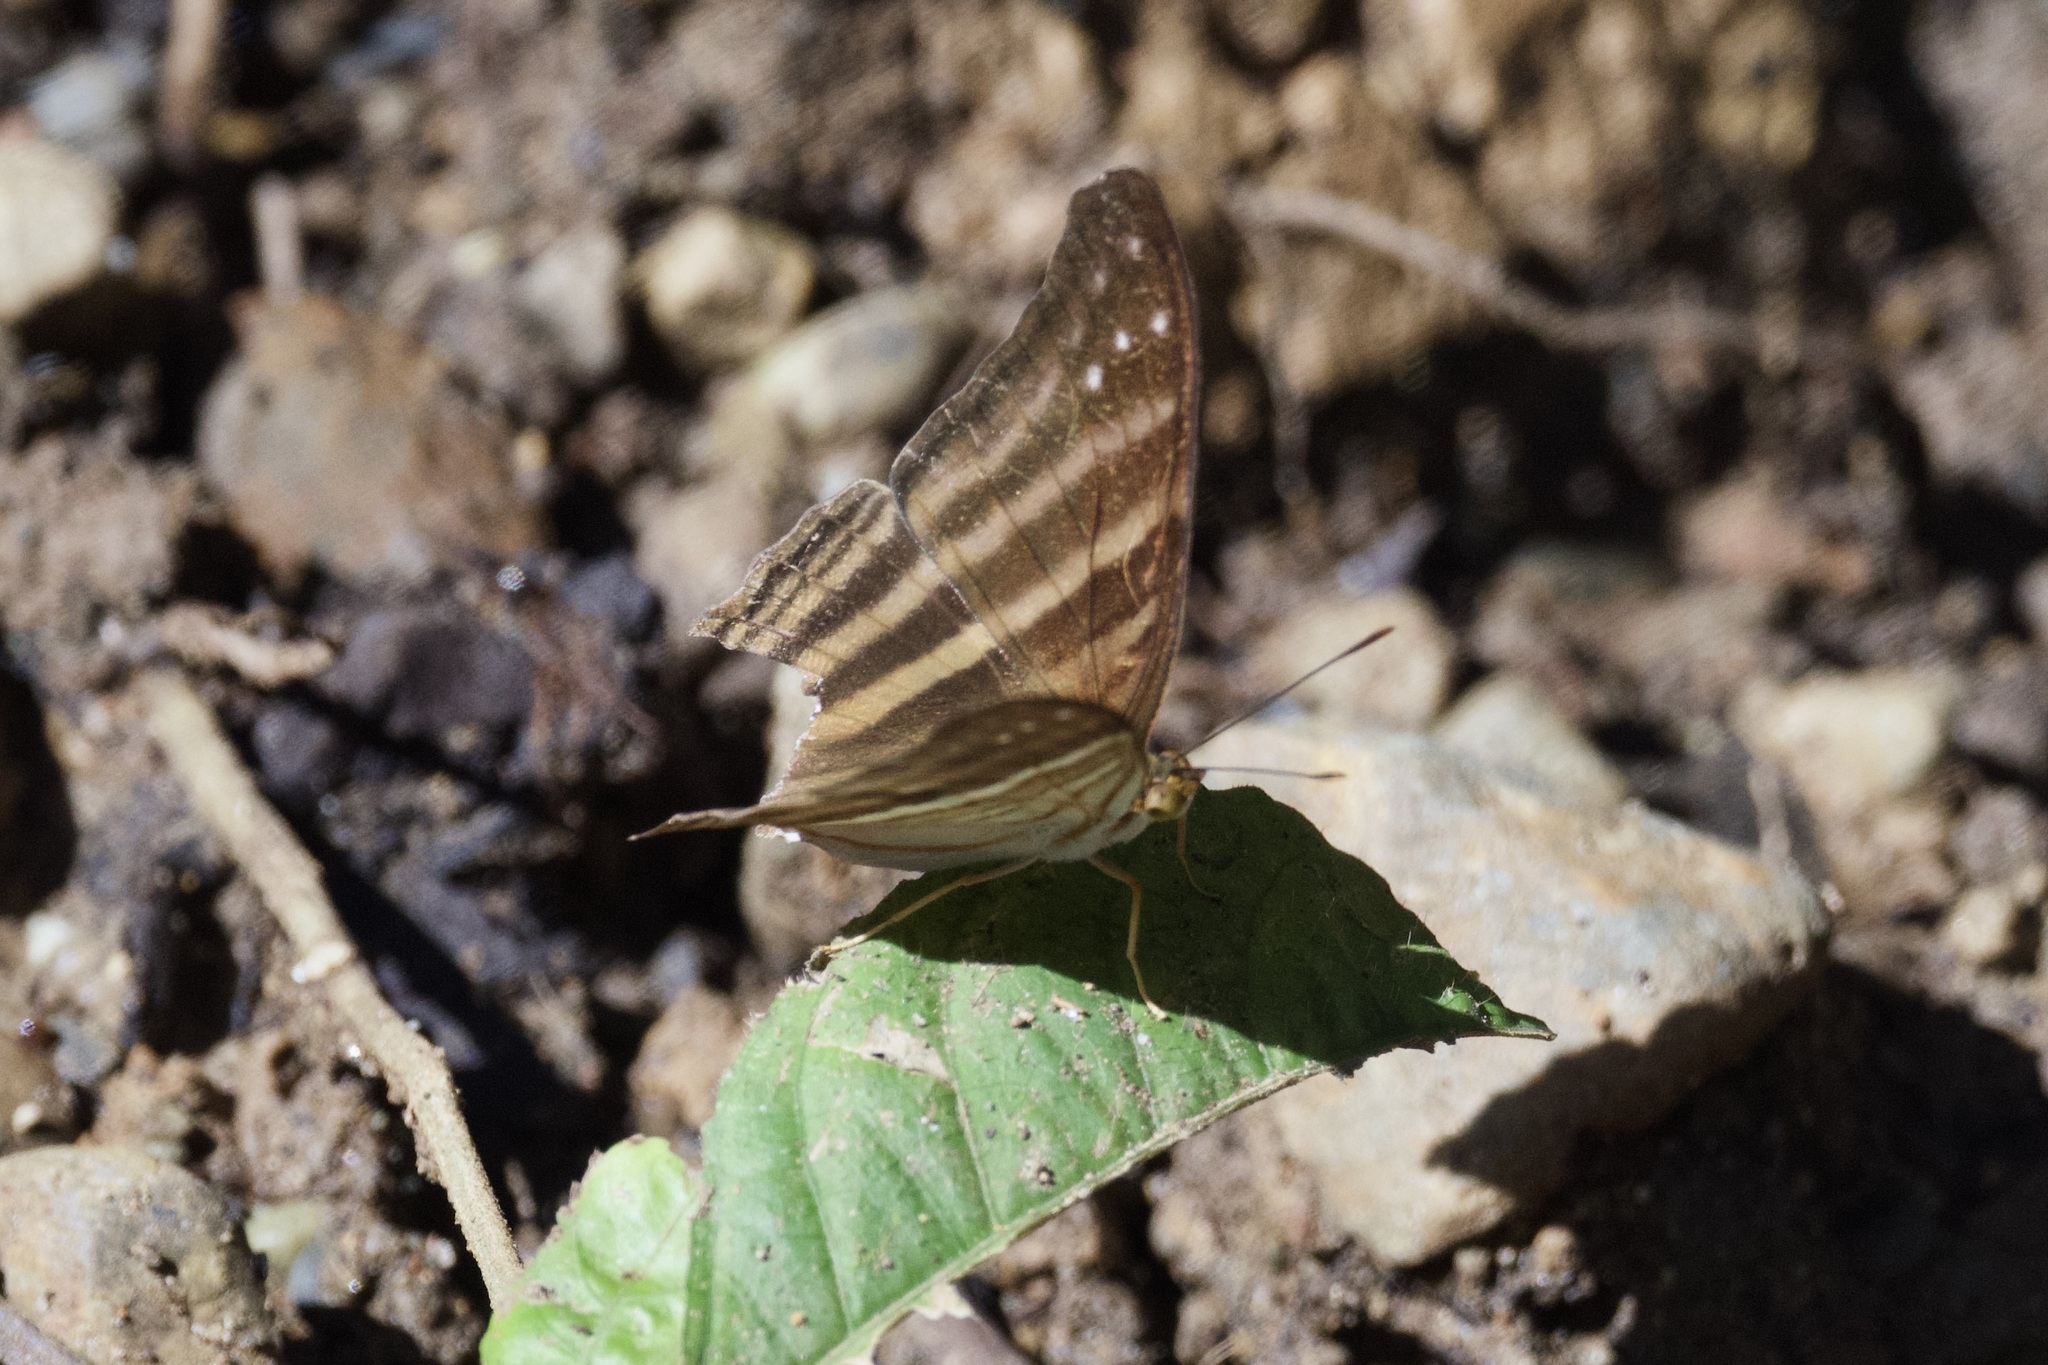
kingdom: Animalia
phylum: Arthropoda
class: Insecta
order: Lepidoptera
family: Nymphalidae
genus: Marpesia
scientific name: Marpesia chiron
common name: Many-banded daggerwing
